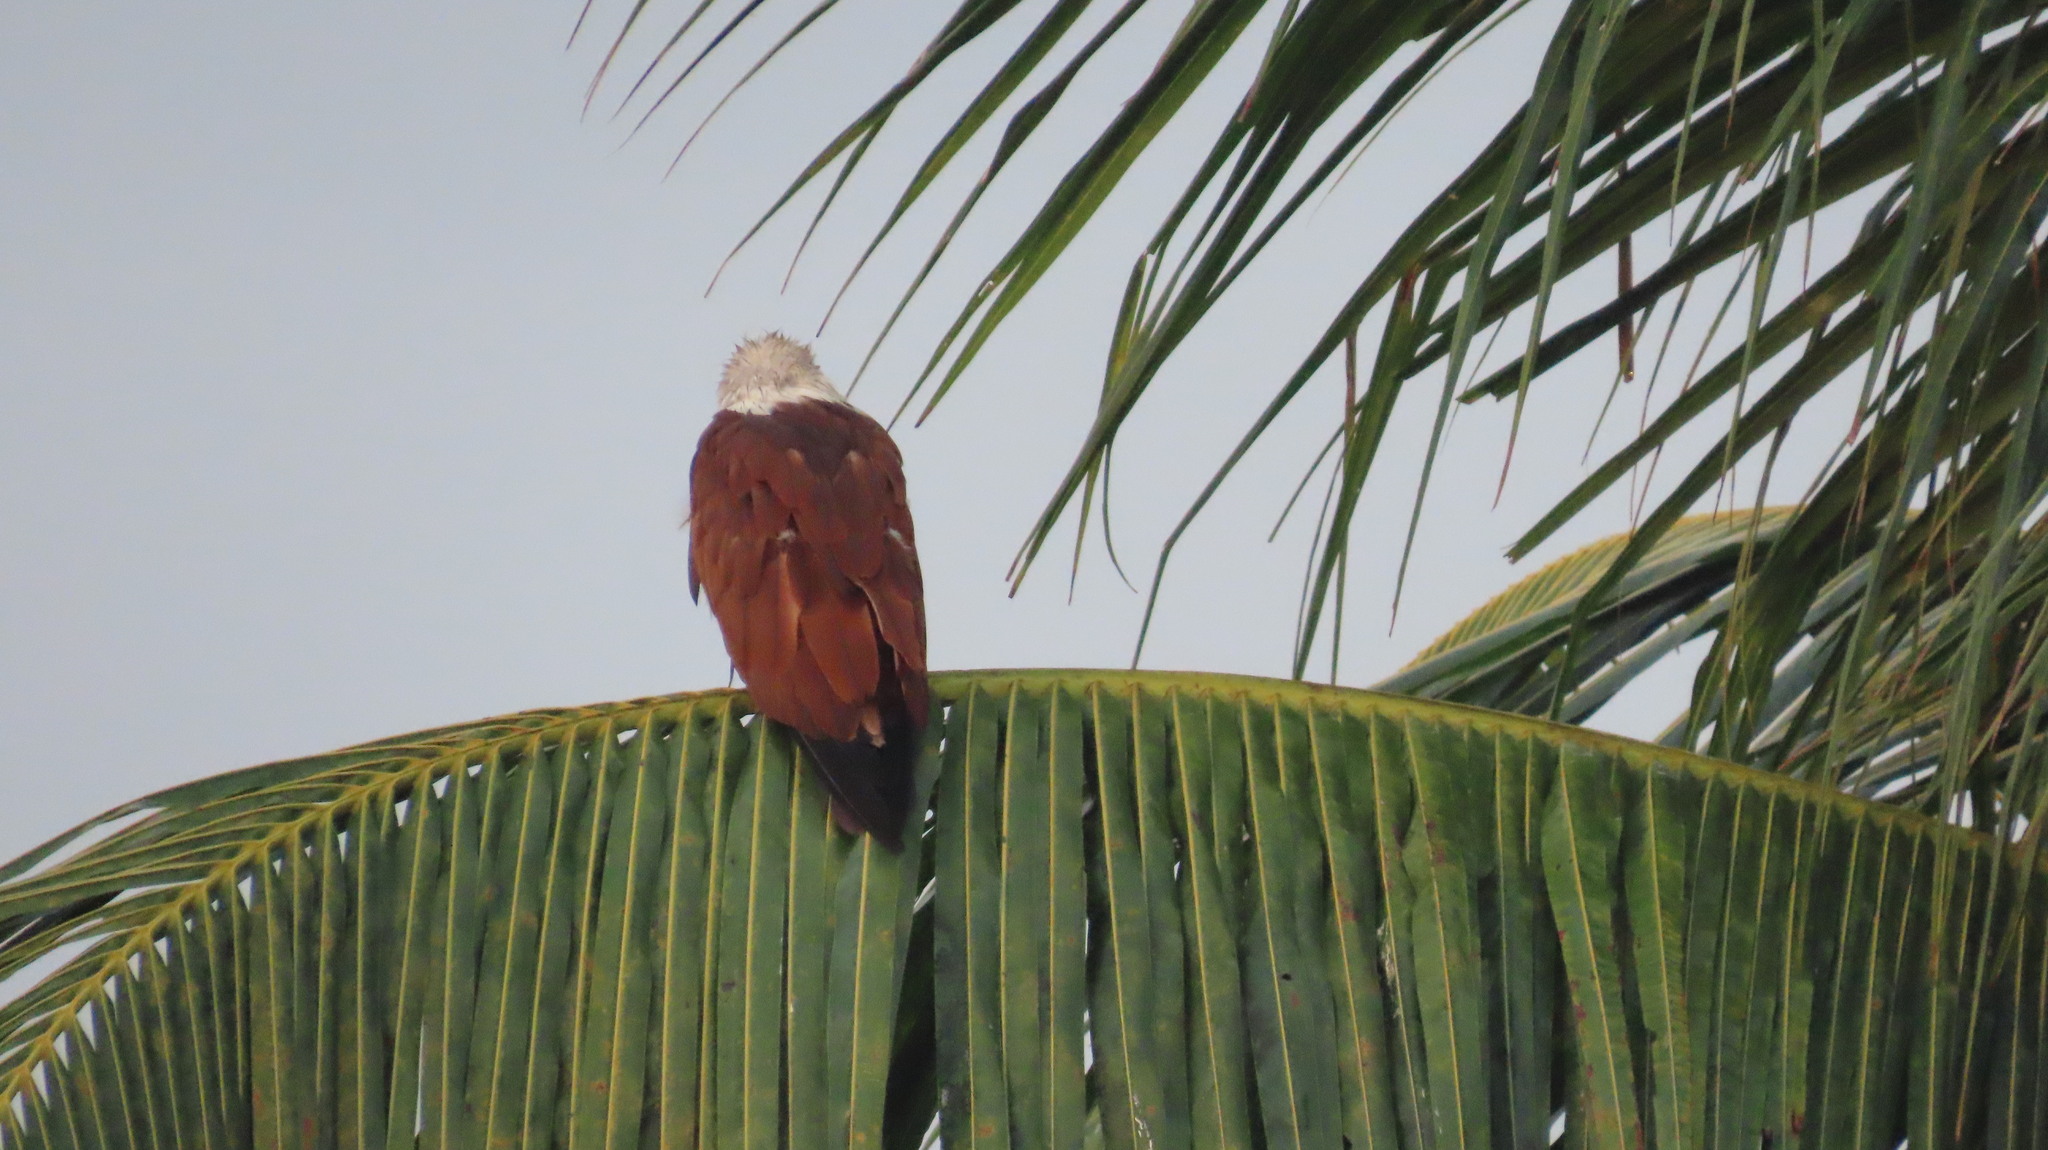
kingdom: Animalia
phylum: Chordata
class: Aves
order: Accipitriformes
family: Accipitridae
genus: Haliastur
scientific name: Haliastur indus
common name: Brahminy kite
